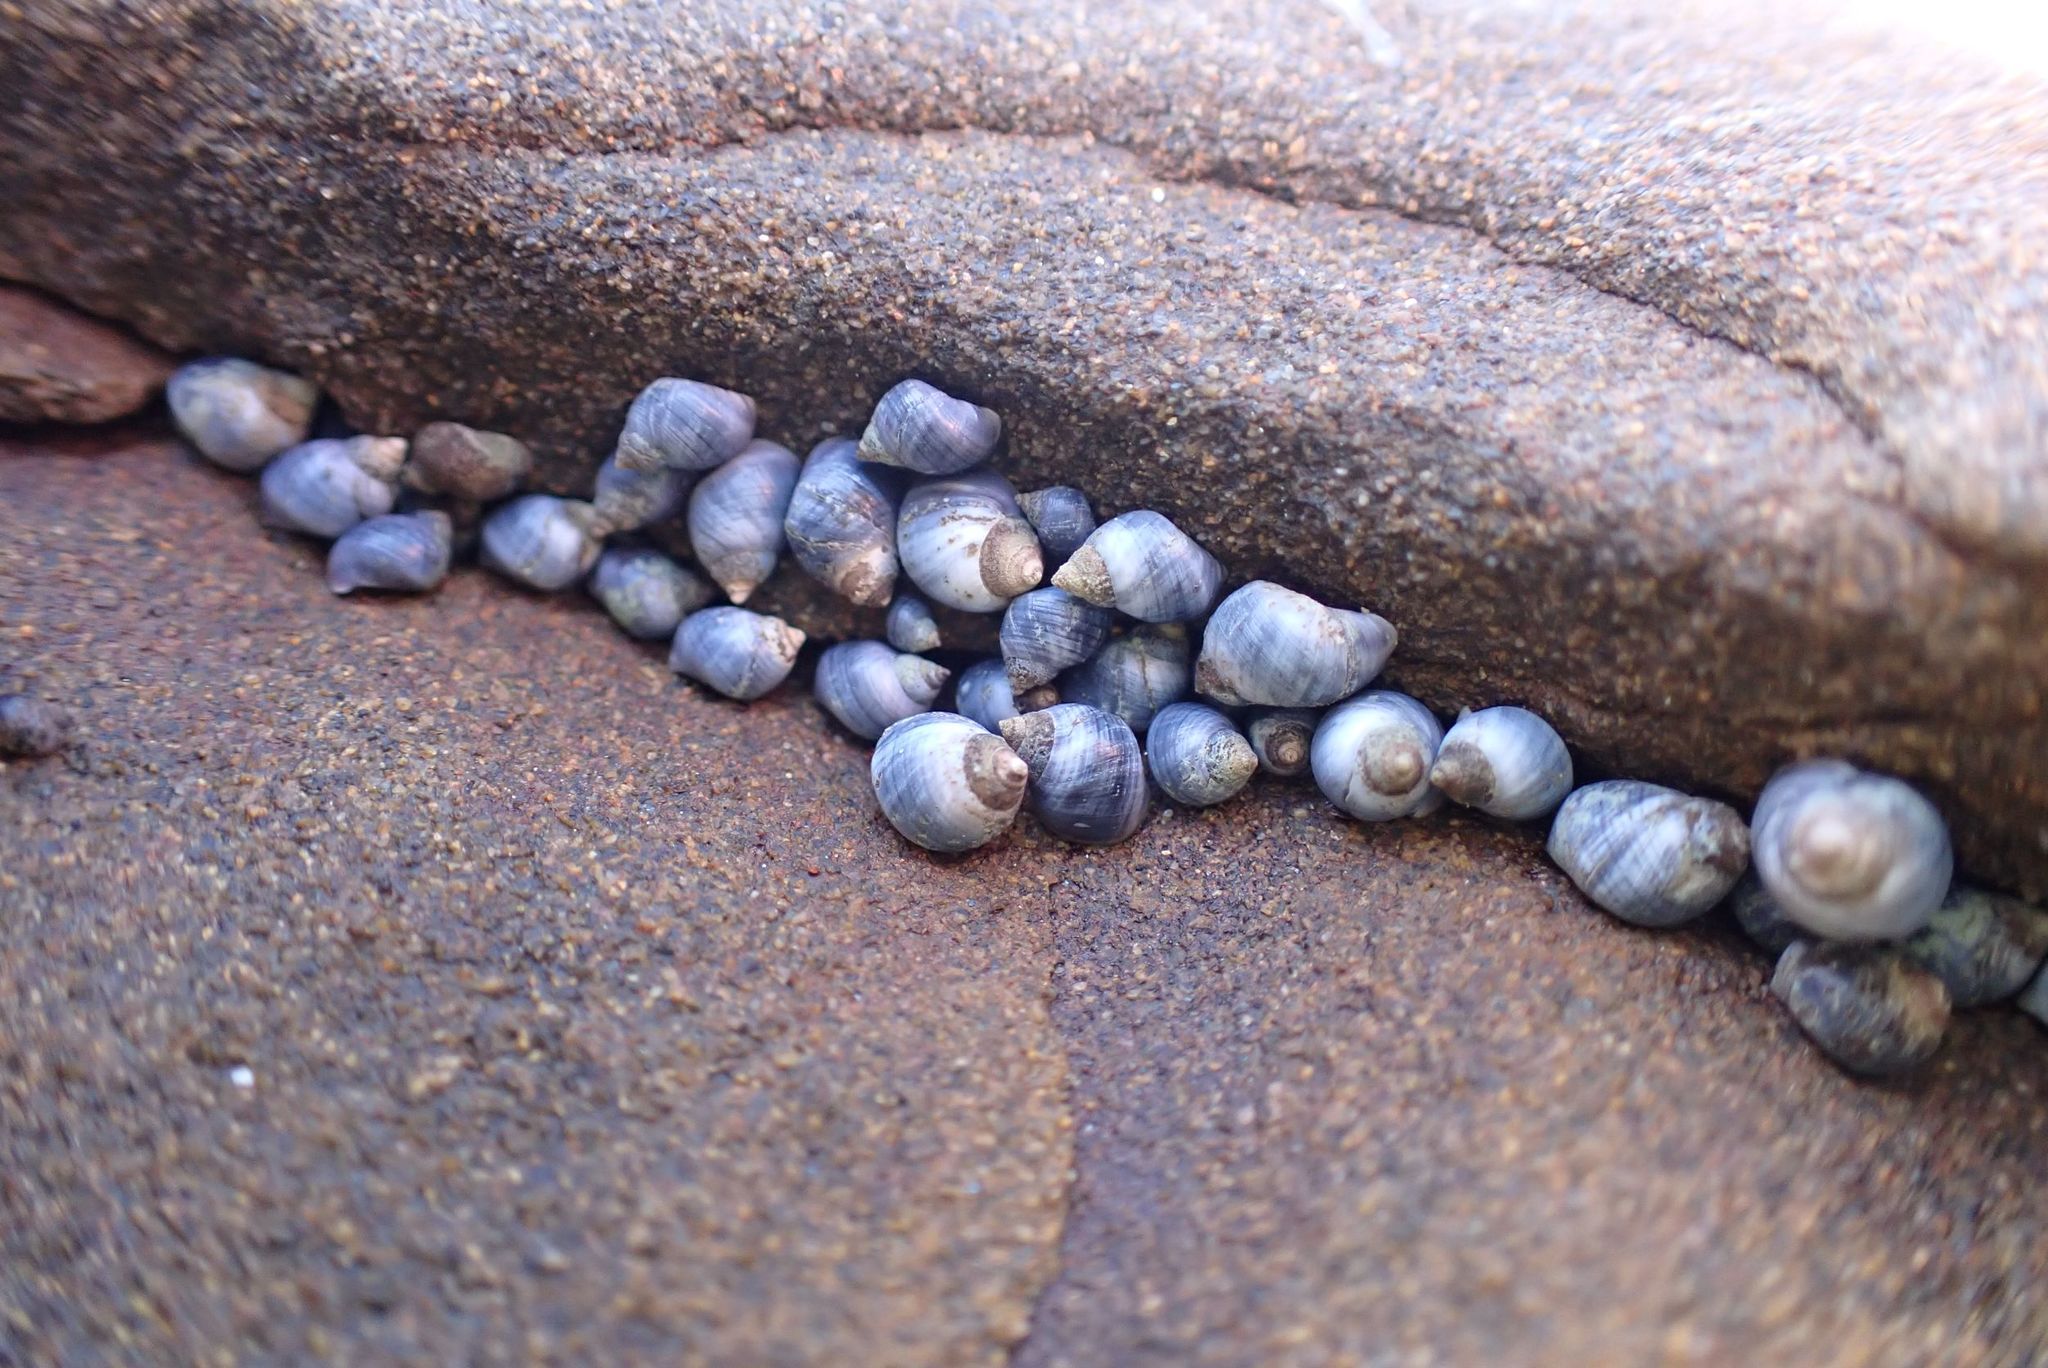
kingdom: Animalia
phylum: Mollusca
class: Gastropoda
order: Littorinimorpha
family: Littorinidae
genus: Austrolittorina
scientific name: Austrolittorina unifasciata
